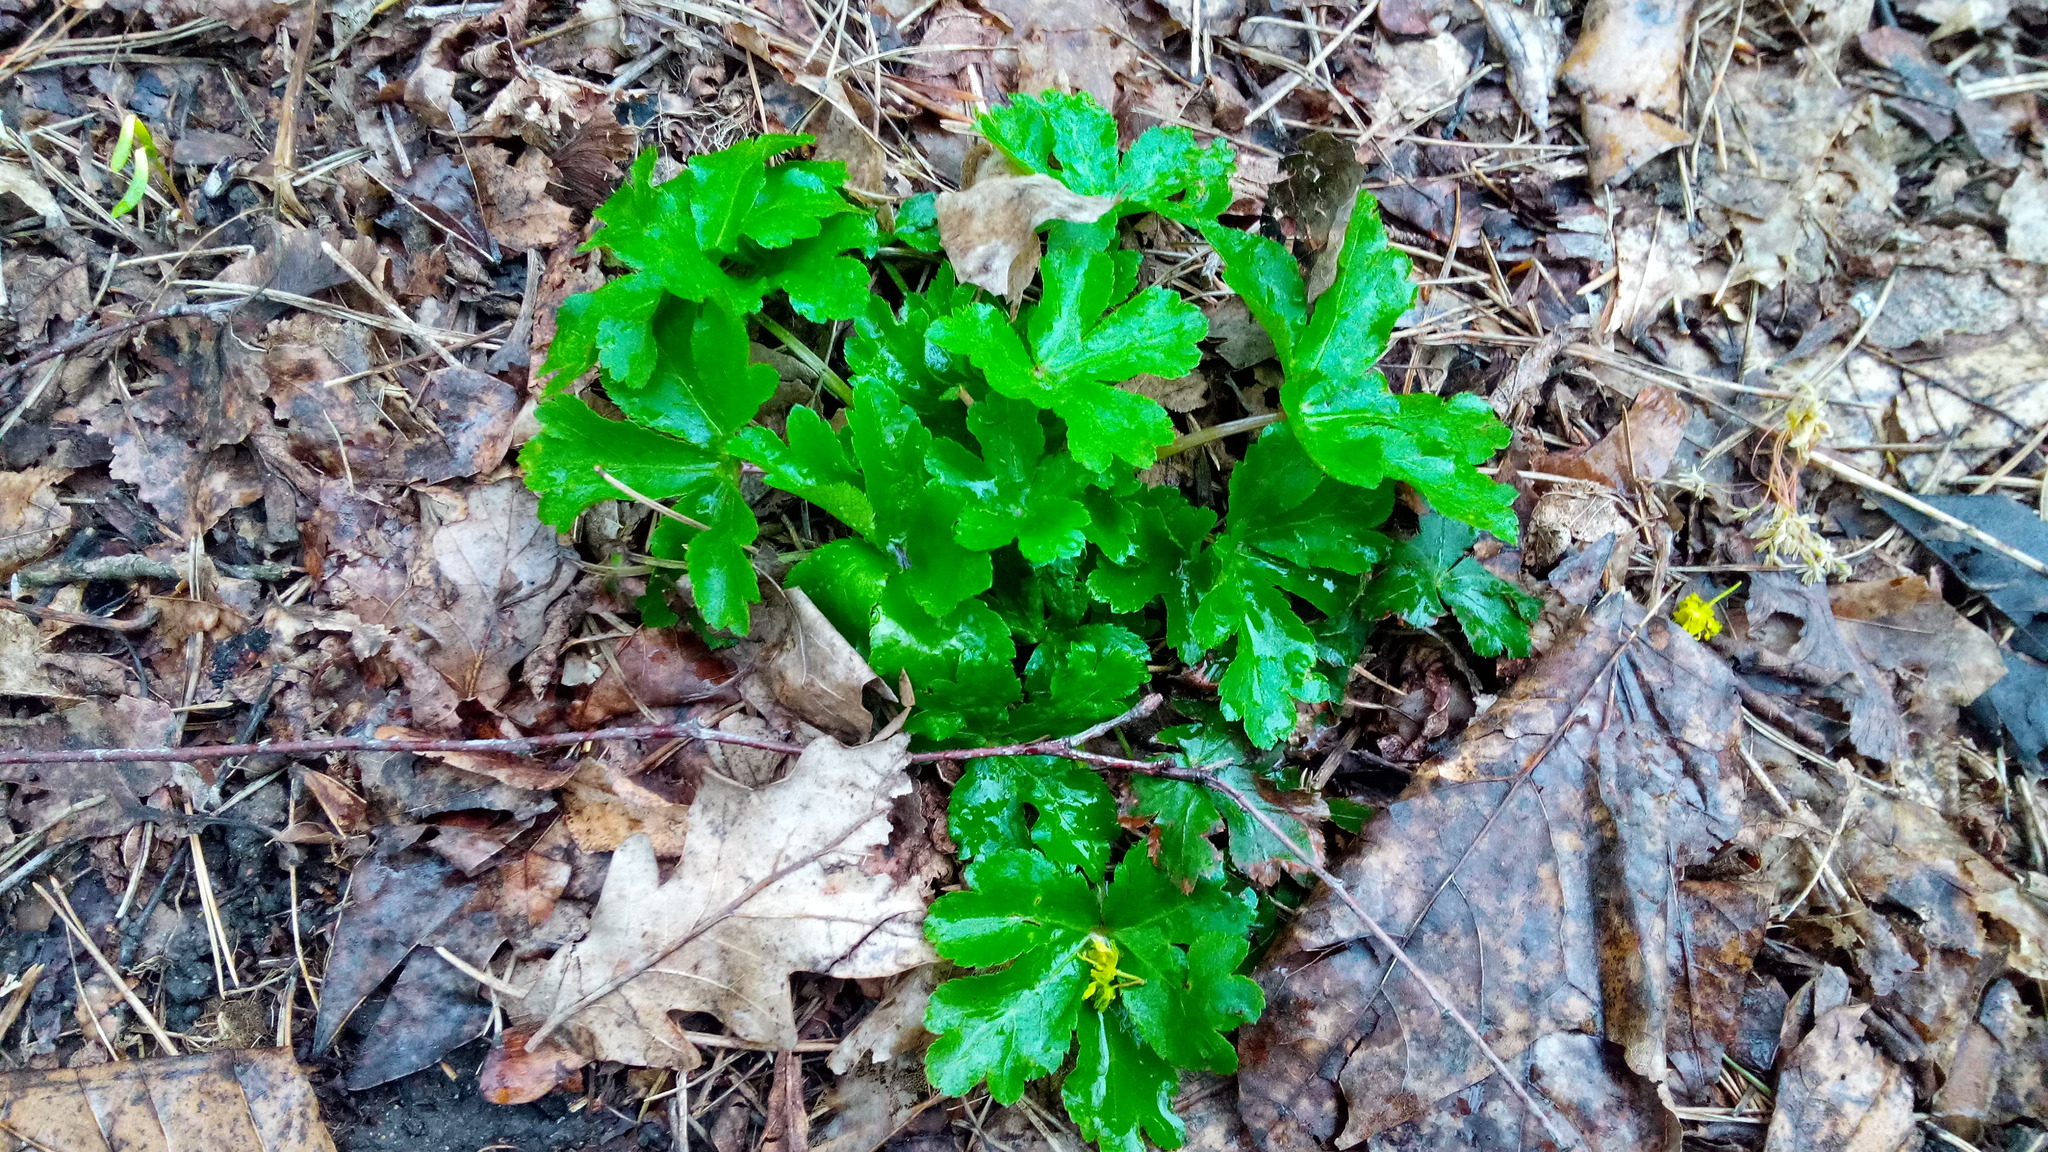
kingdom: Plantae
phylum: Tracheophyta
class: Magnoliopsida
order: Apiales
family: Apiaceae
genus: Sanicula
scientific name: Sanicula europaea
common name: Sanicle
